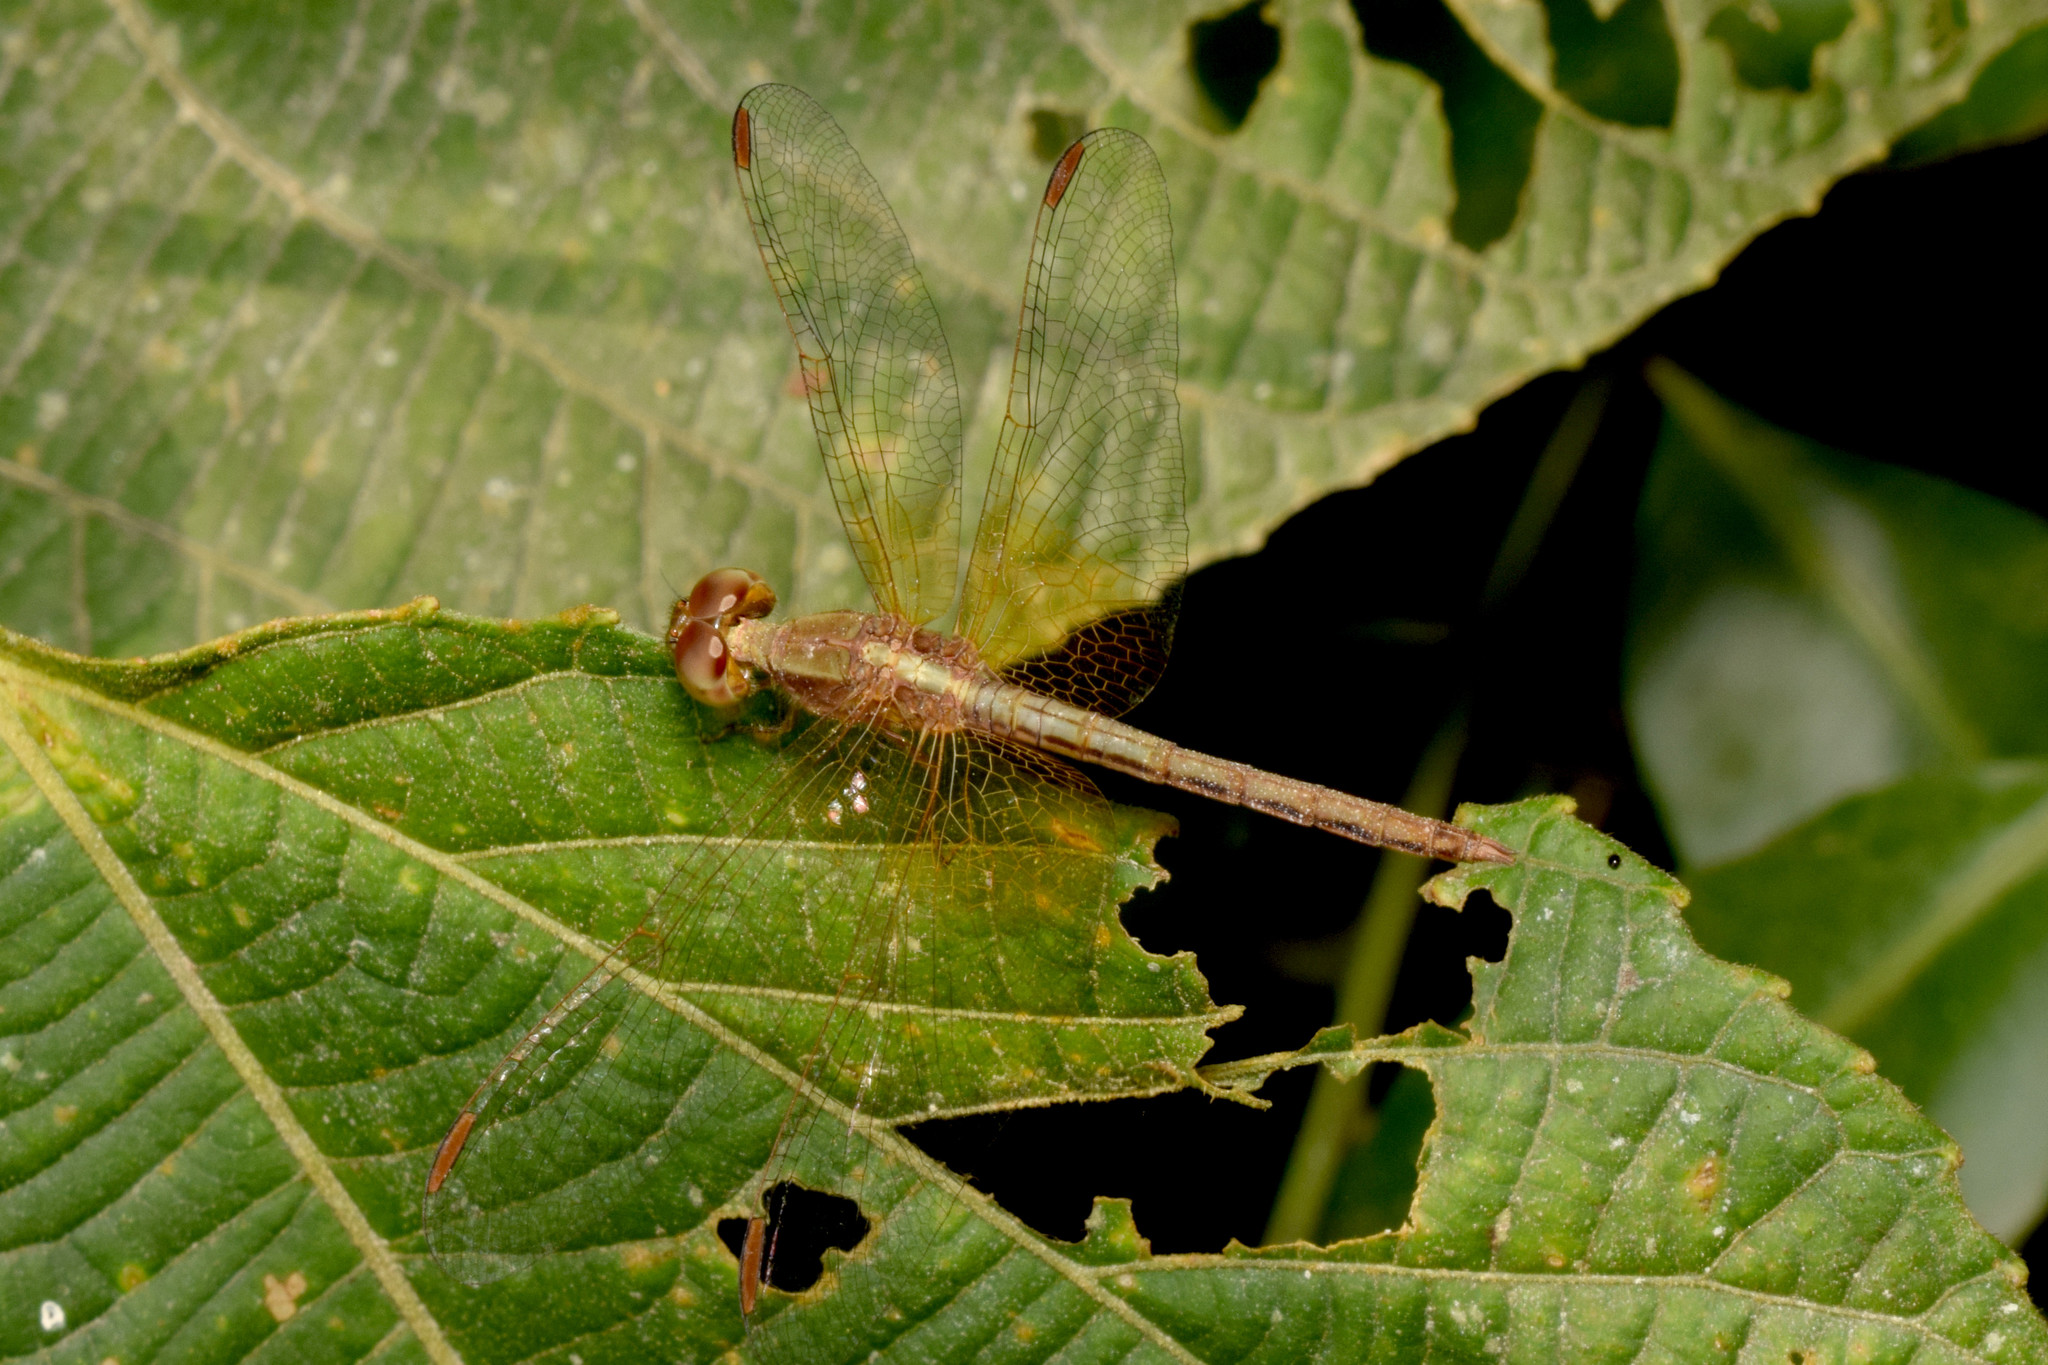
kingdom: Animalia
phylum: Arthropoda
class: Insecta
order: Odonata
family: Libellulidae
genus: Neurothemis
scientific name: Neurothemis intermedia
